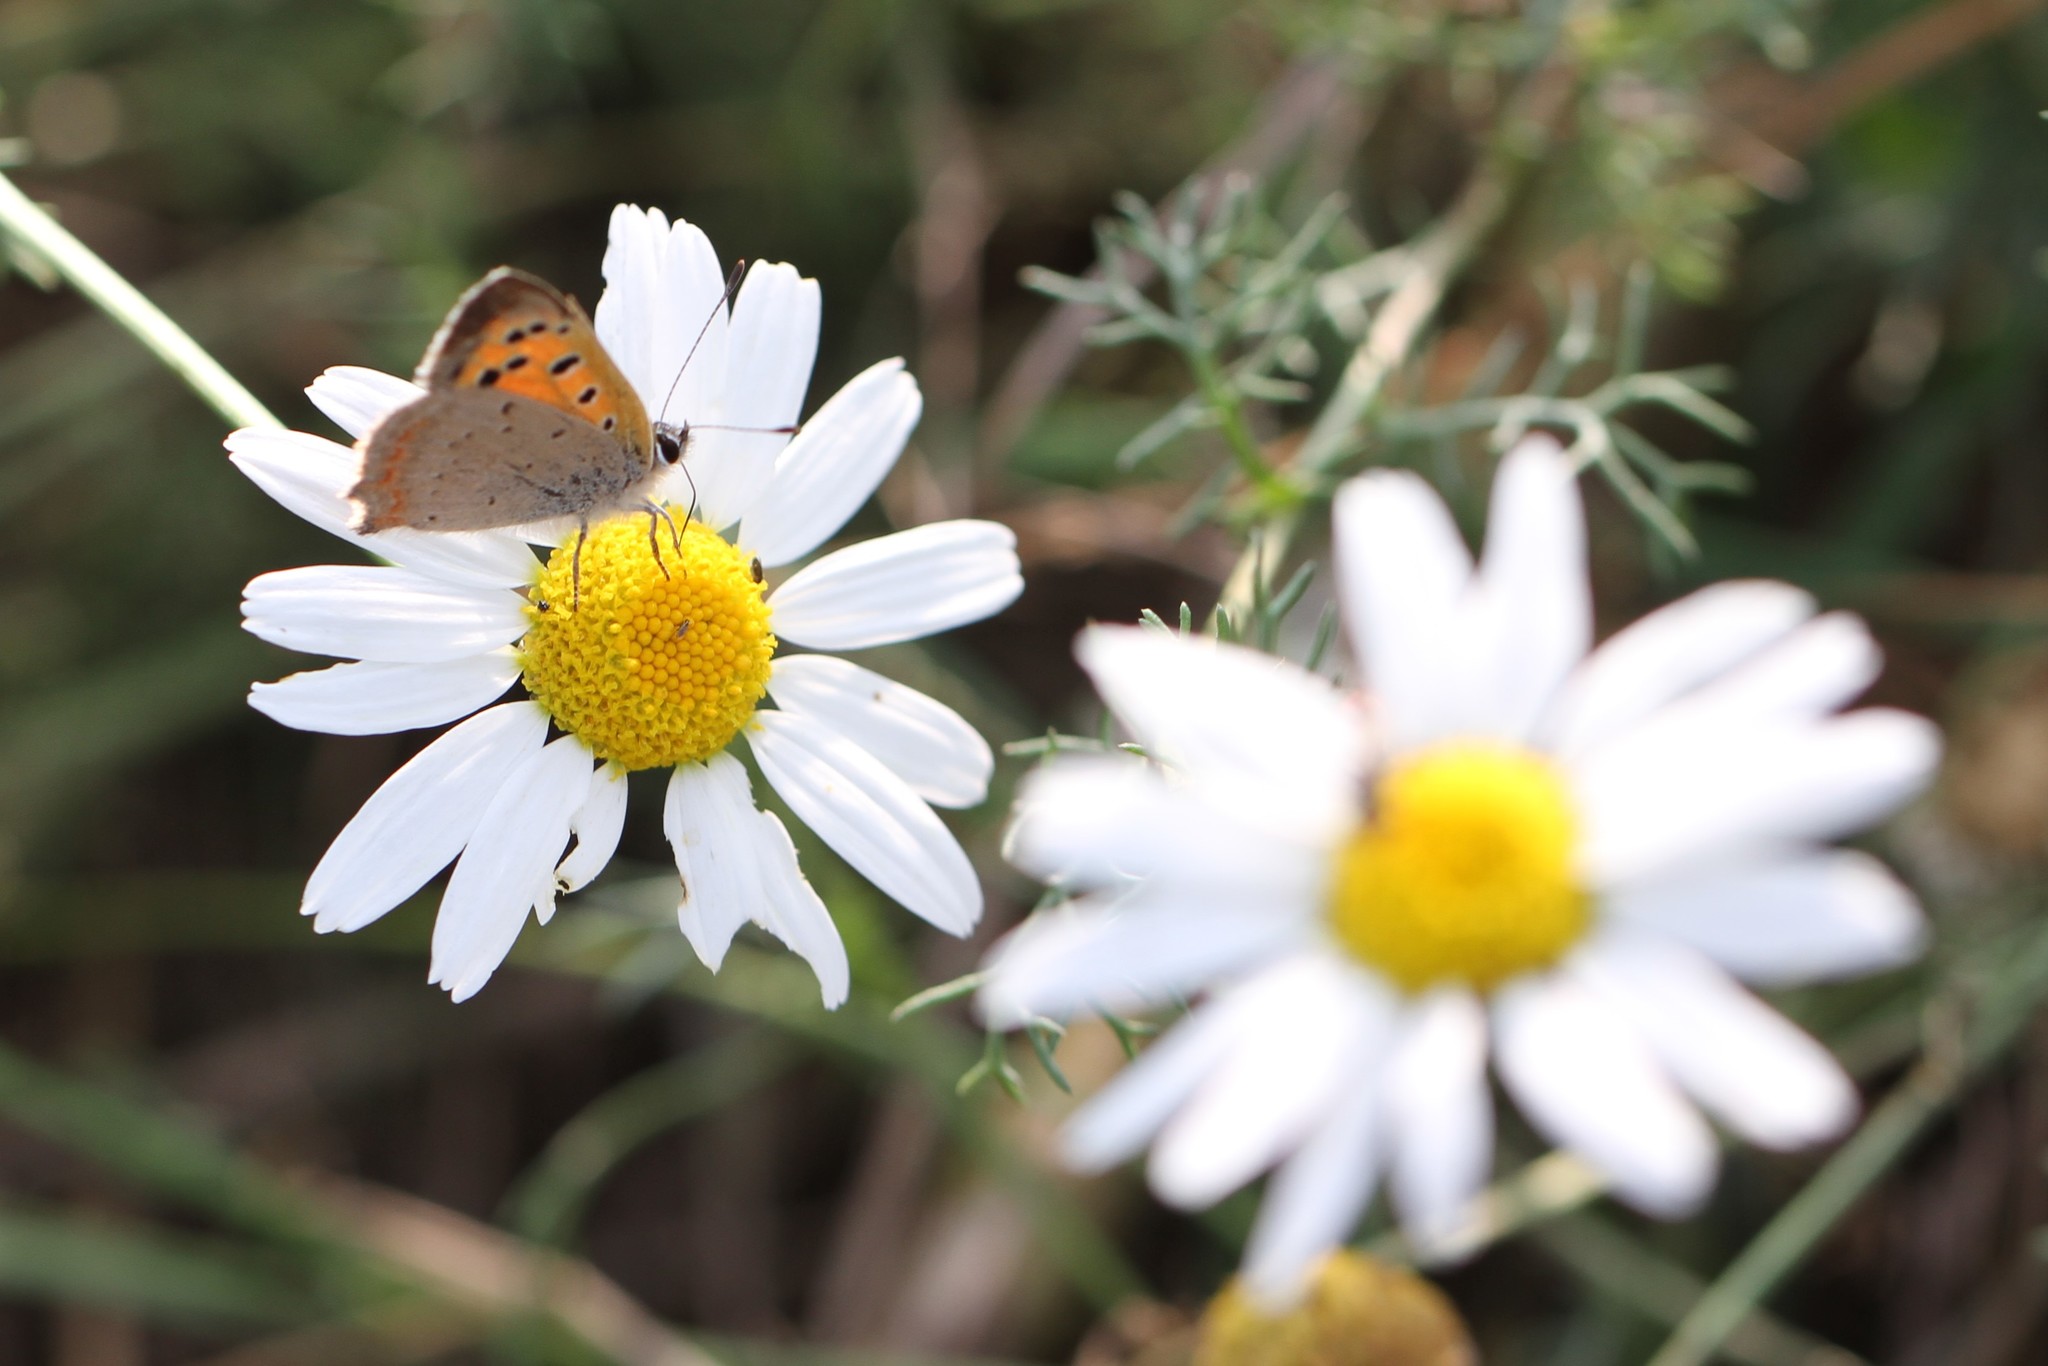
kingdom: Animalia
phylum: Arthropoda
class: Insecta
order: Lepidoptera
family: Lycaenidae
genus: Lycaena
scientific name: Lycaena phlaeas
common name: Small copper
